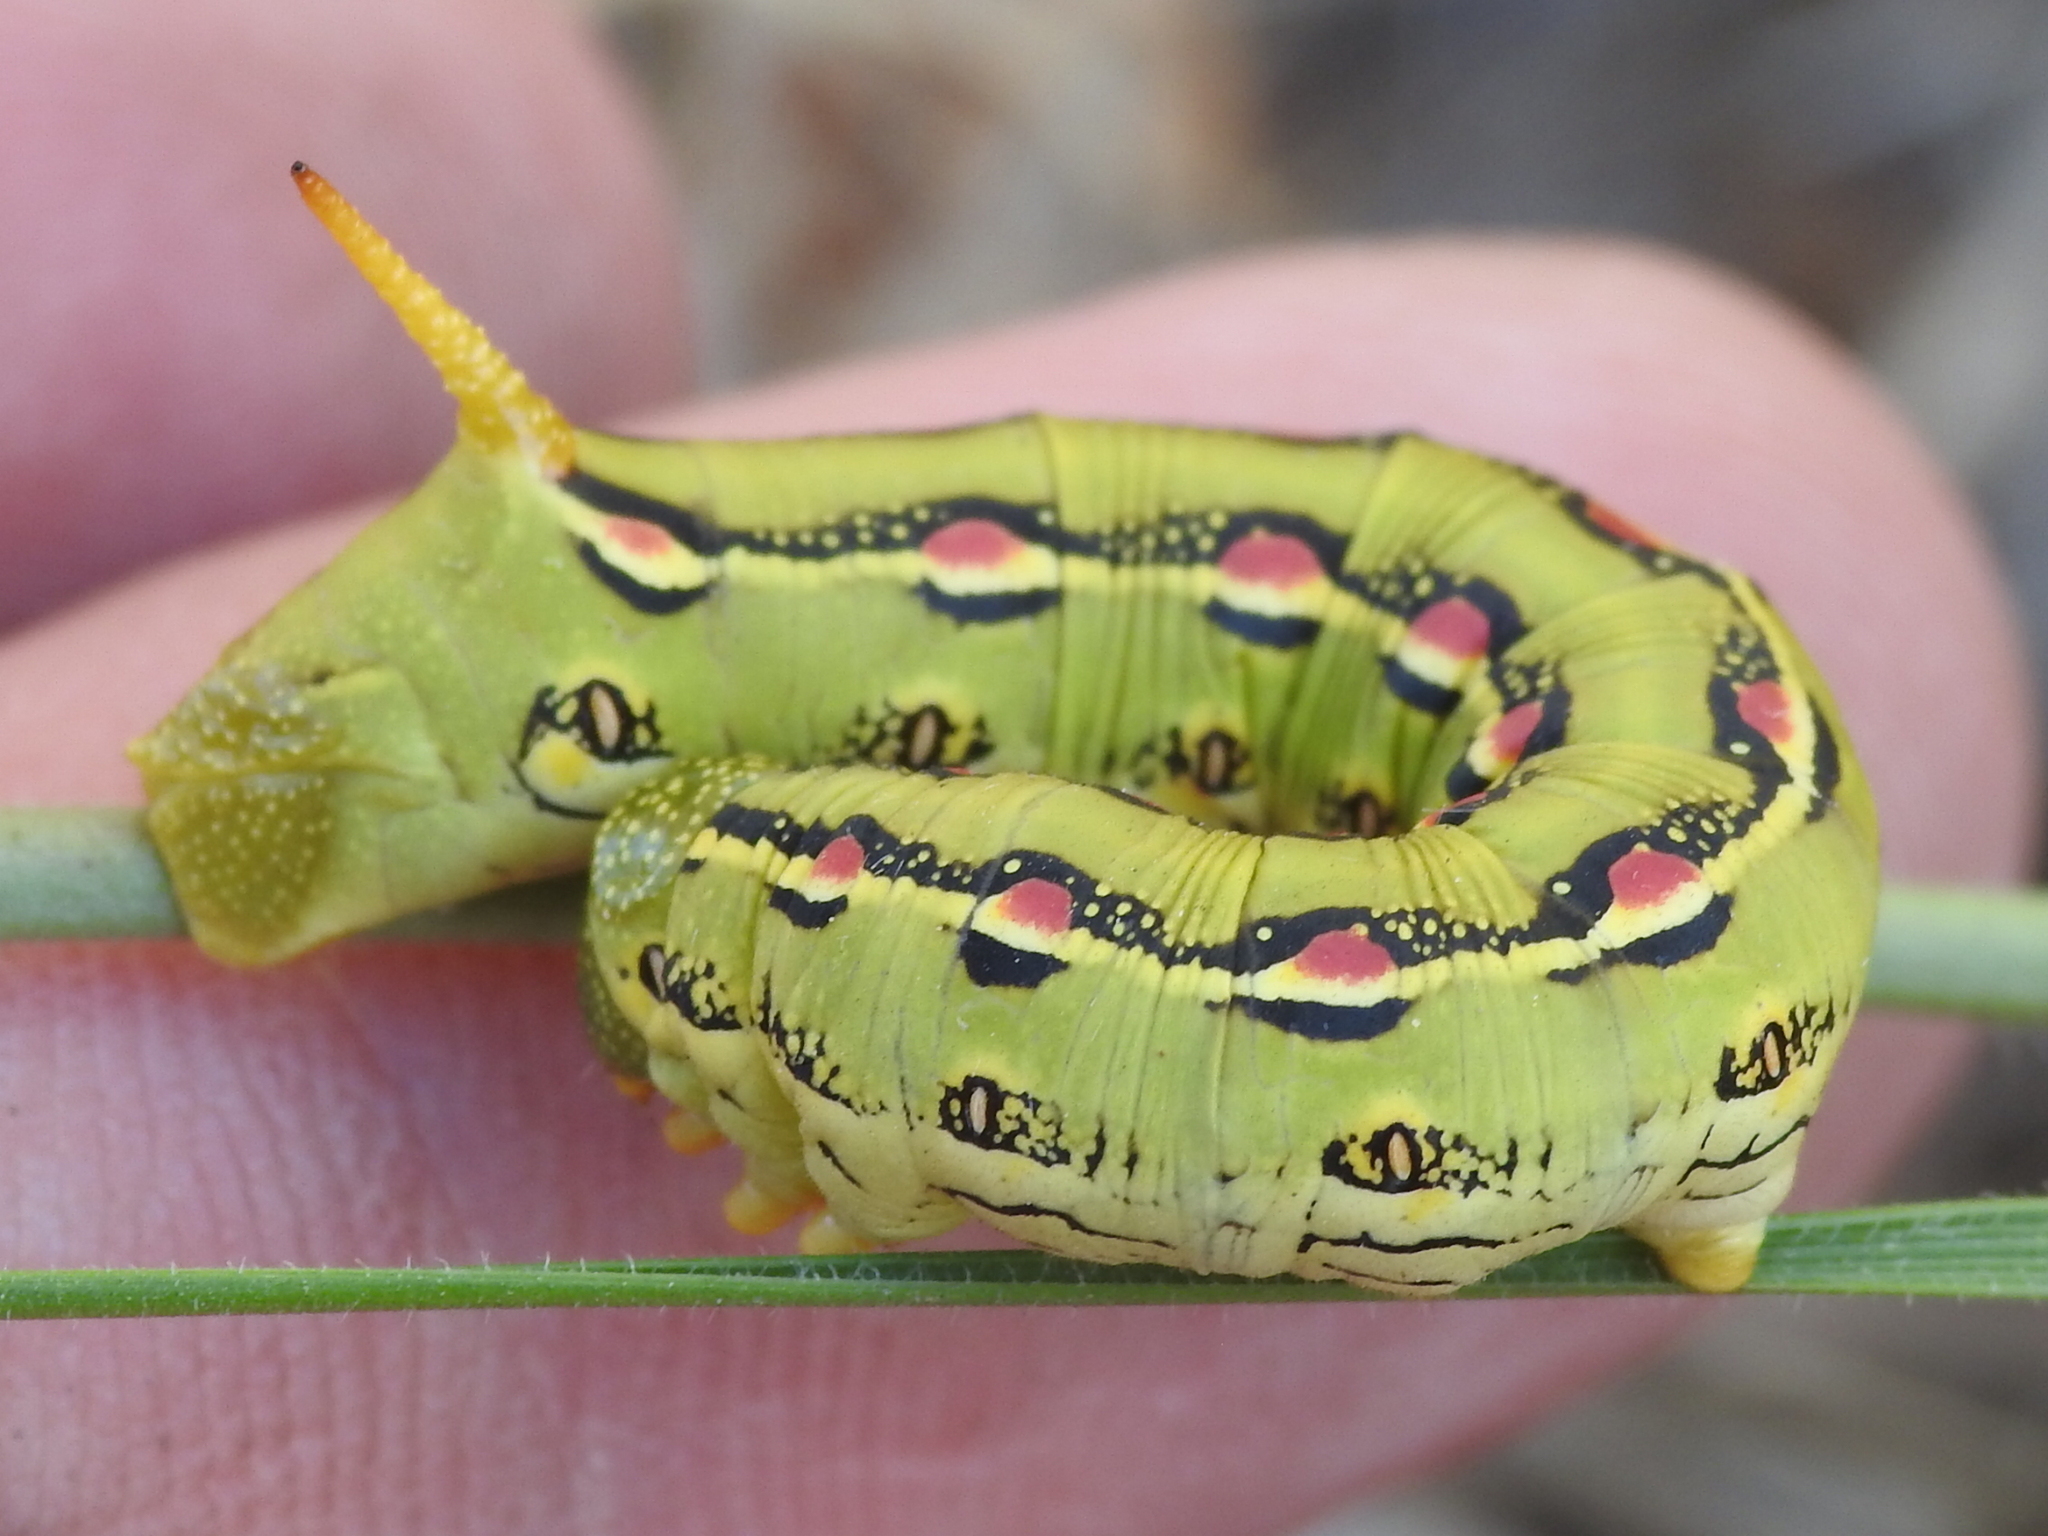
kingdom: Animalia
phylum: Arthropoda
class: Insecta
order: Lepidoptera
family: Sphingidae
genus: Hyles
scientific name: Hyles lineata
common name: White-lined sphinx
